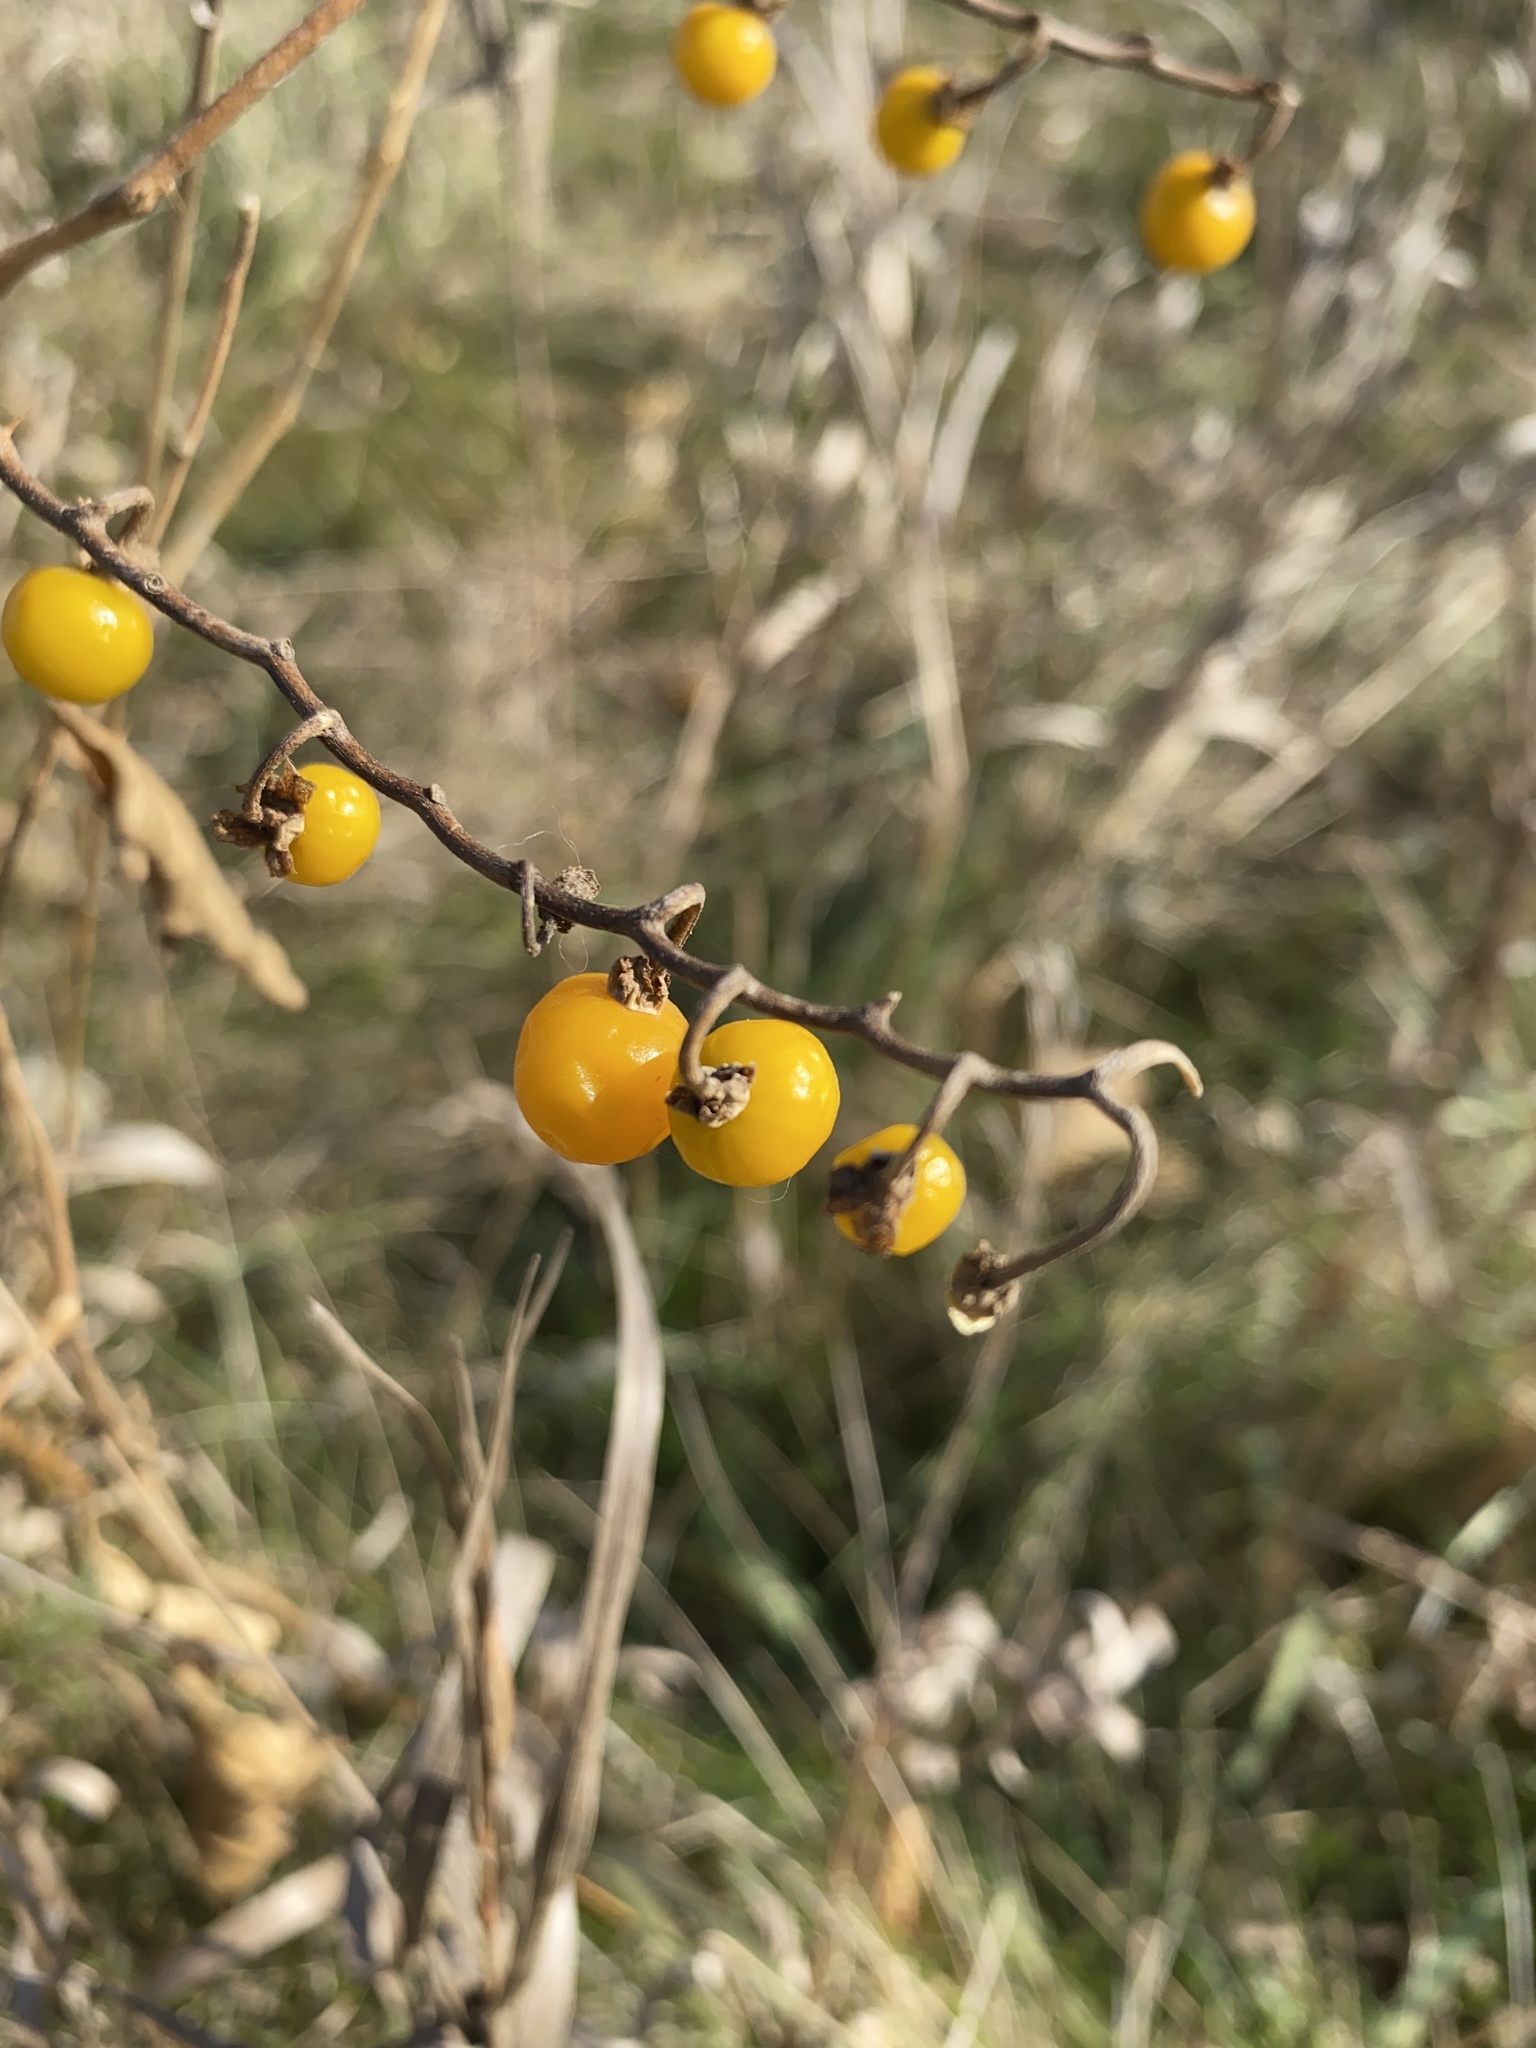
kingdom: Plantae
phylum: Tracheophyta
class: Magnoliopsida
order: Solanales
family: Solanaceae
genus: Solanum
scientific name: Solanum carolinense
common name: Horse-nettle
